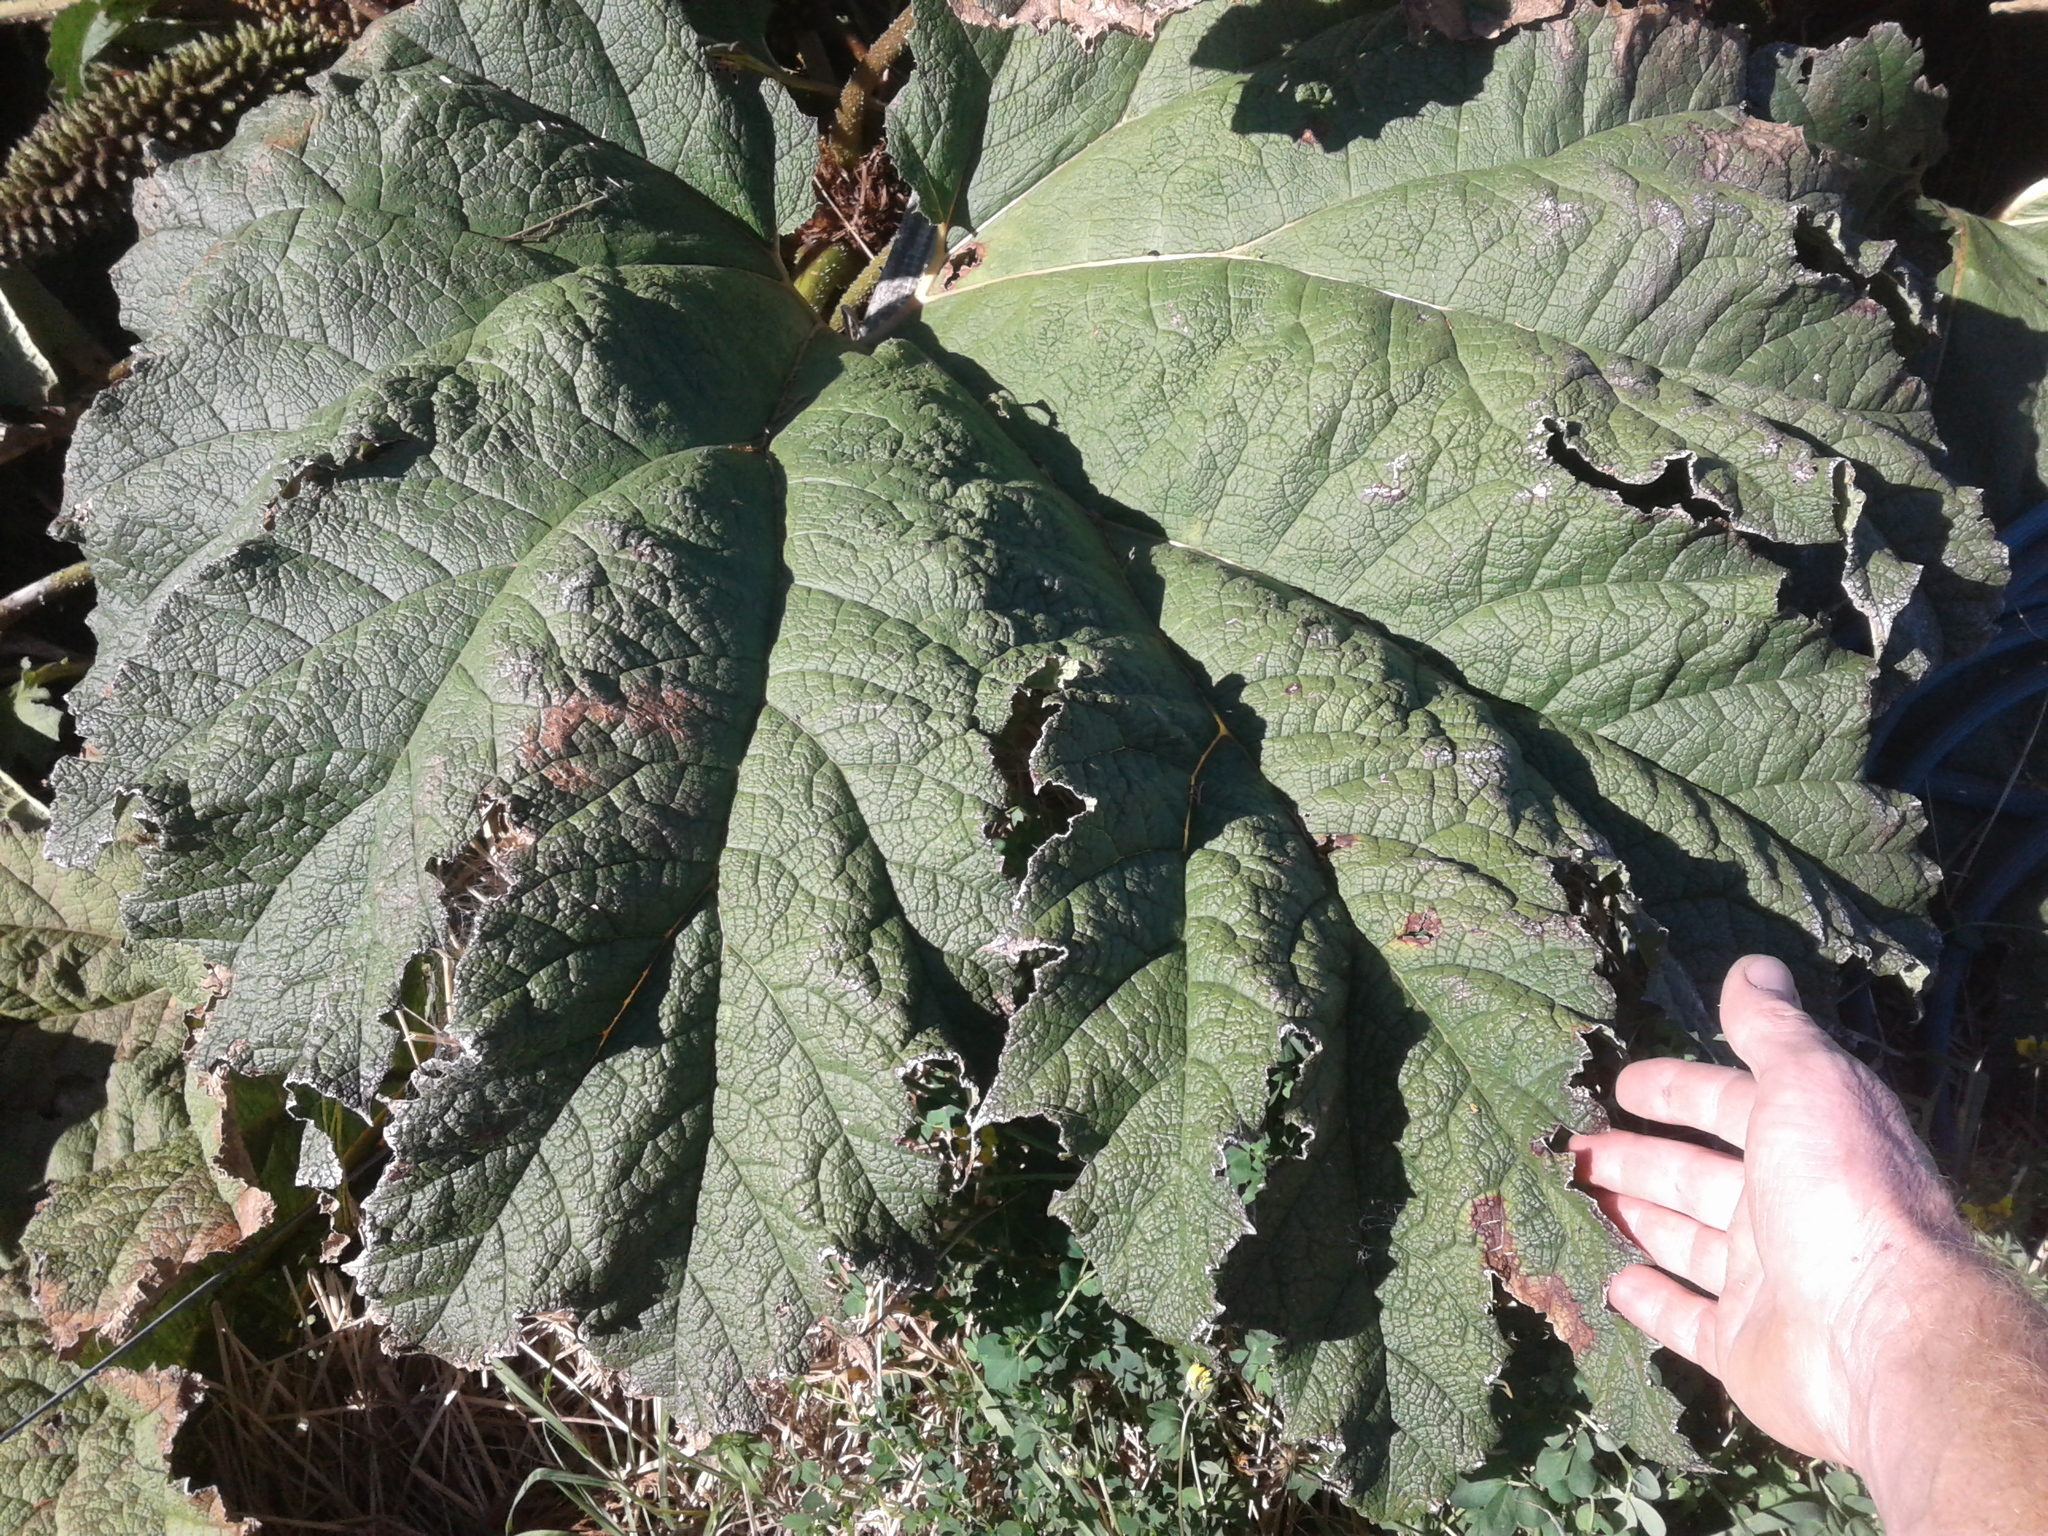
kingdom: Plantae
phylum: Tracheophyta
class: Magnoliopsida
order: Gunnerales
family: Gunneraceae
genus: Gunnera
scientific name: Gunnera tinctoria
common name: Giant-rhubarb
